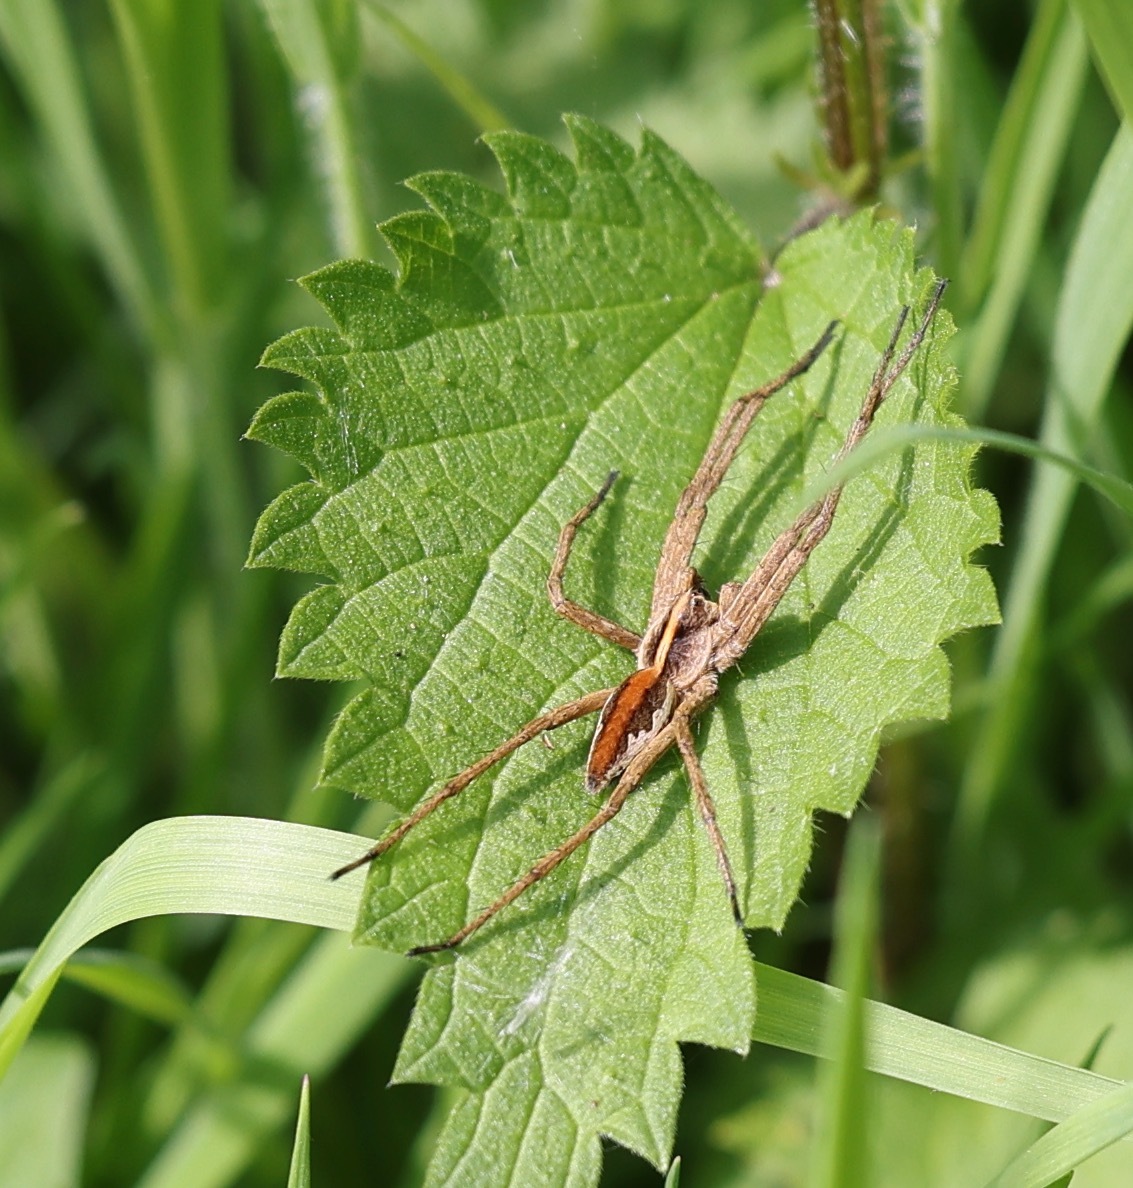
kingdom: Animalia
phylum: Arthropoda
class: Arachnida
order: Araneae
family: Pisauridae
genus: Pisaura
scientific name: Pisaura mirabilis
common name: Tent spider
